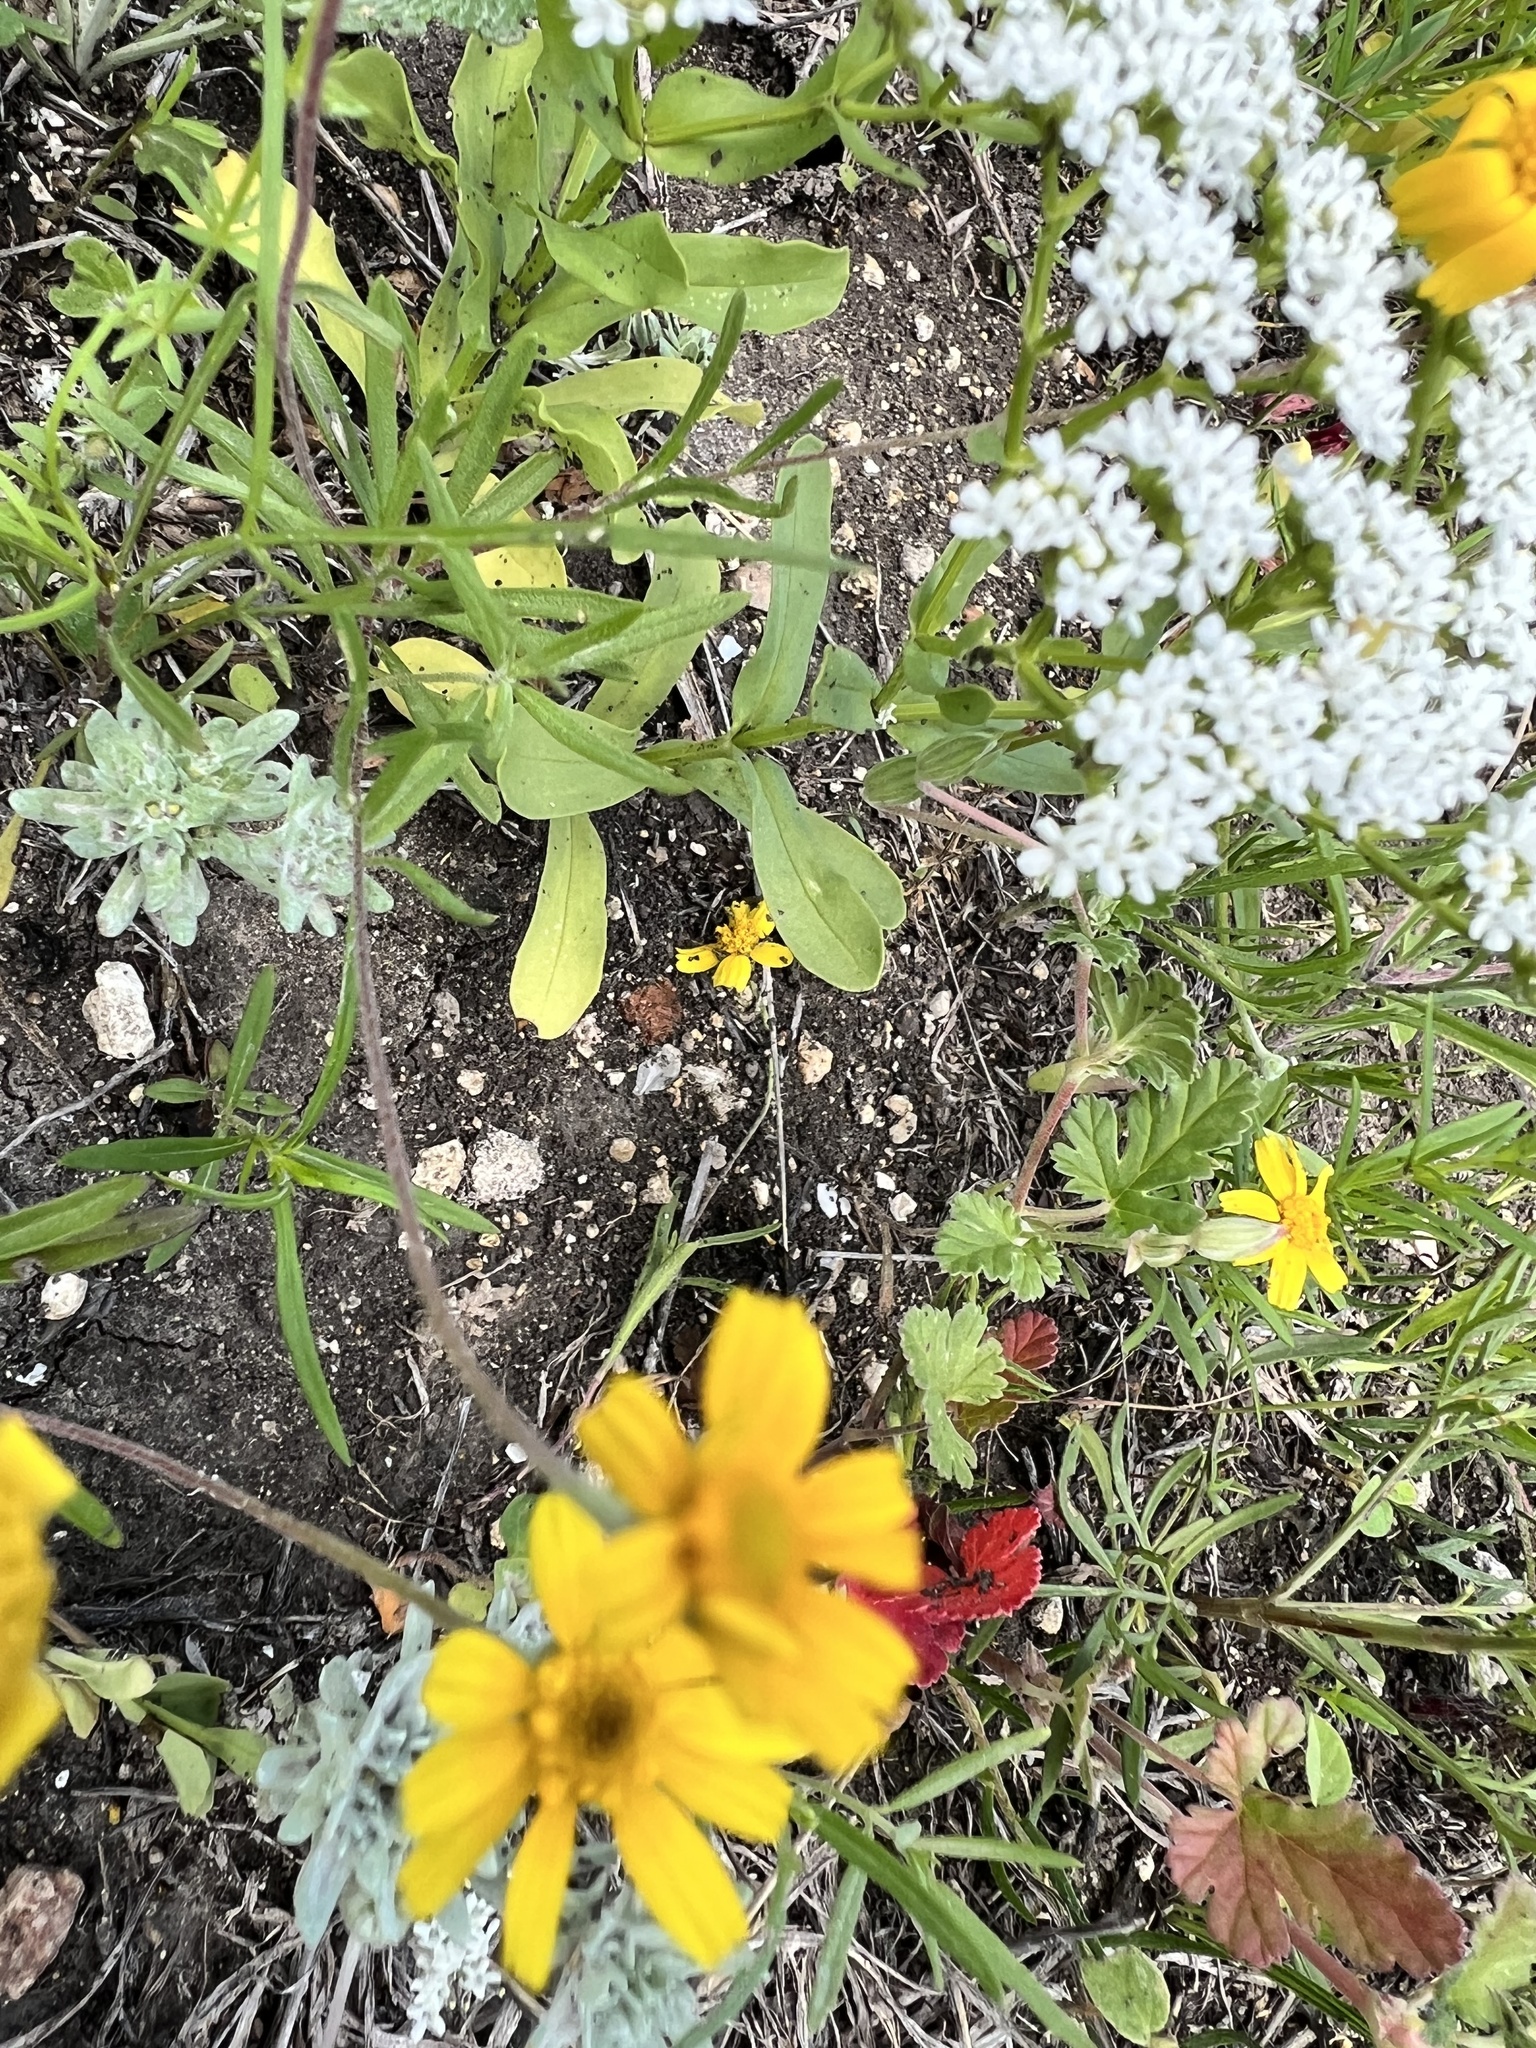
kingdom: Plantae
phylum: Tracheophyta
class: Magnoliopsida
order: Dipsacales
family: Caprifoliaceae
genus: Valerianella
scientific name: Valerianella amarella
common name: Hariy cornsalad
